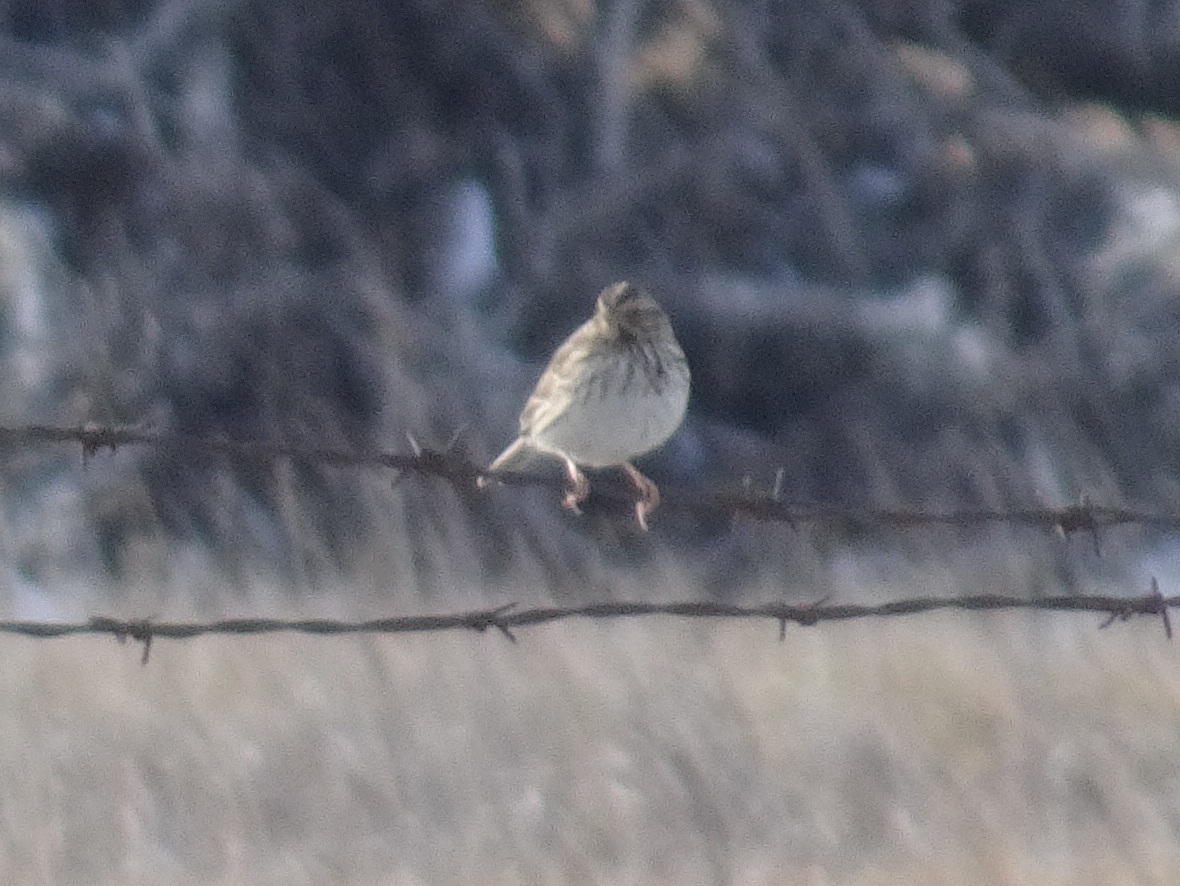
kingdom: Animalia
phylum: Chordata
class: Aves
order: Passeriformes
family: Passerellidae
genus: Passerculus
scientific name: Passerculus sandwichensis
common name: Savannah sparrow
